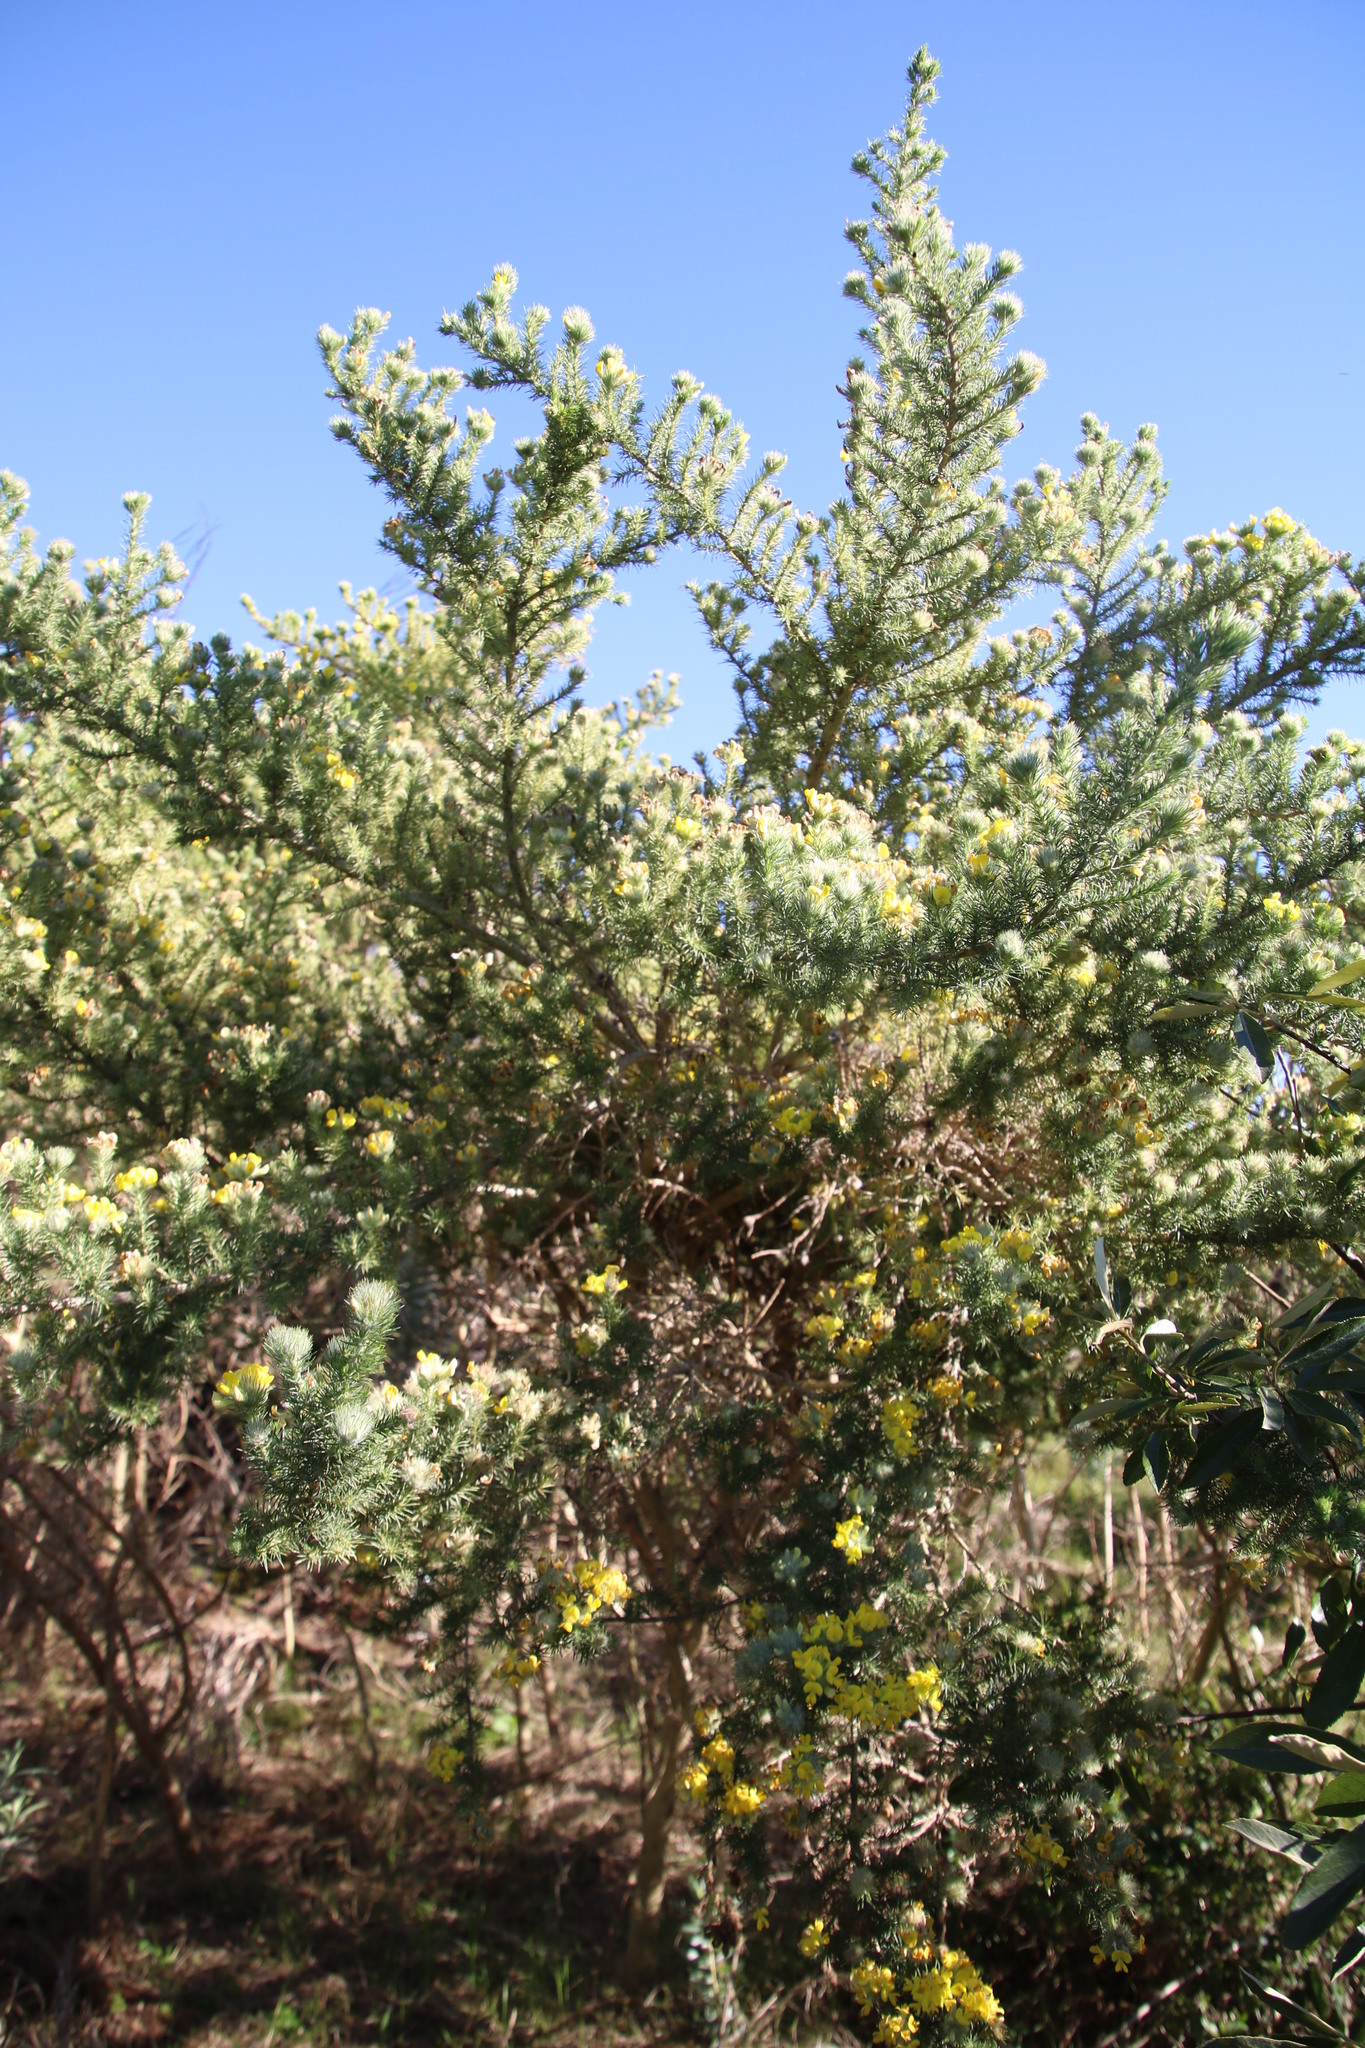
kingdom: Plantae
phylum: Tracheophyta
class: Magnoliopsida
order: Fabales
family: Fabaceae
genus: Aspalathus
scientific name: Aspalathus chenopoda
